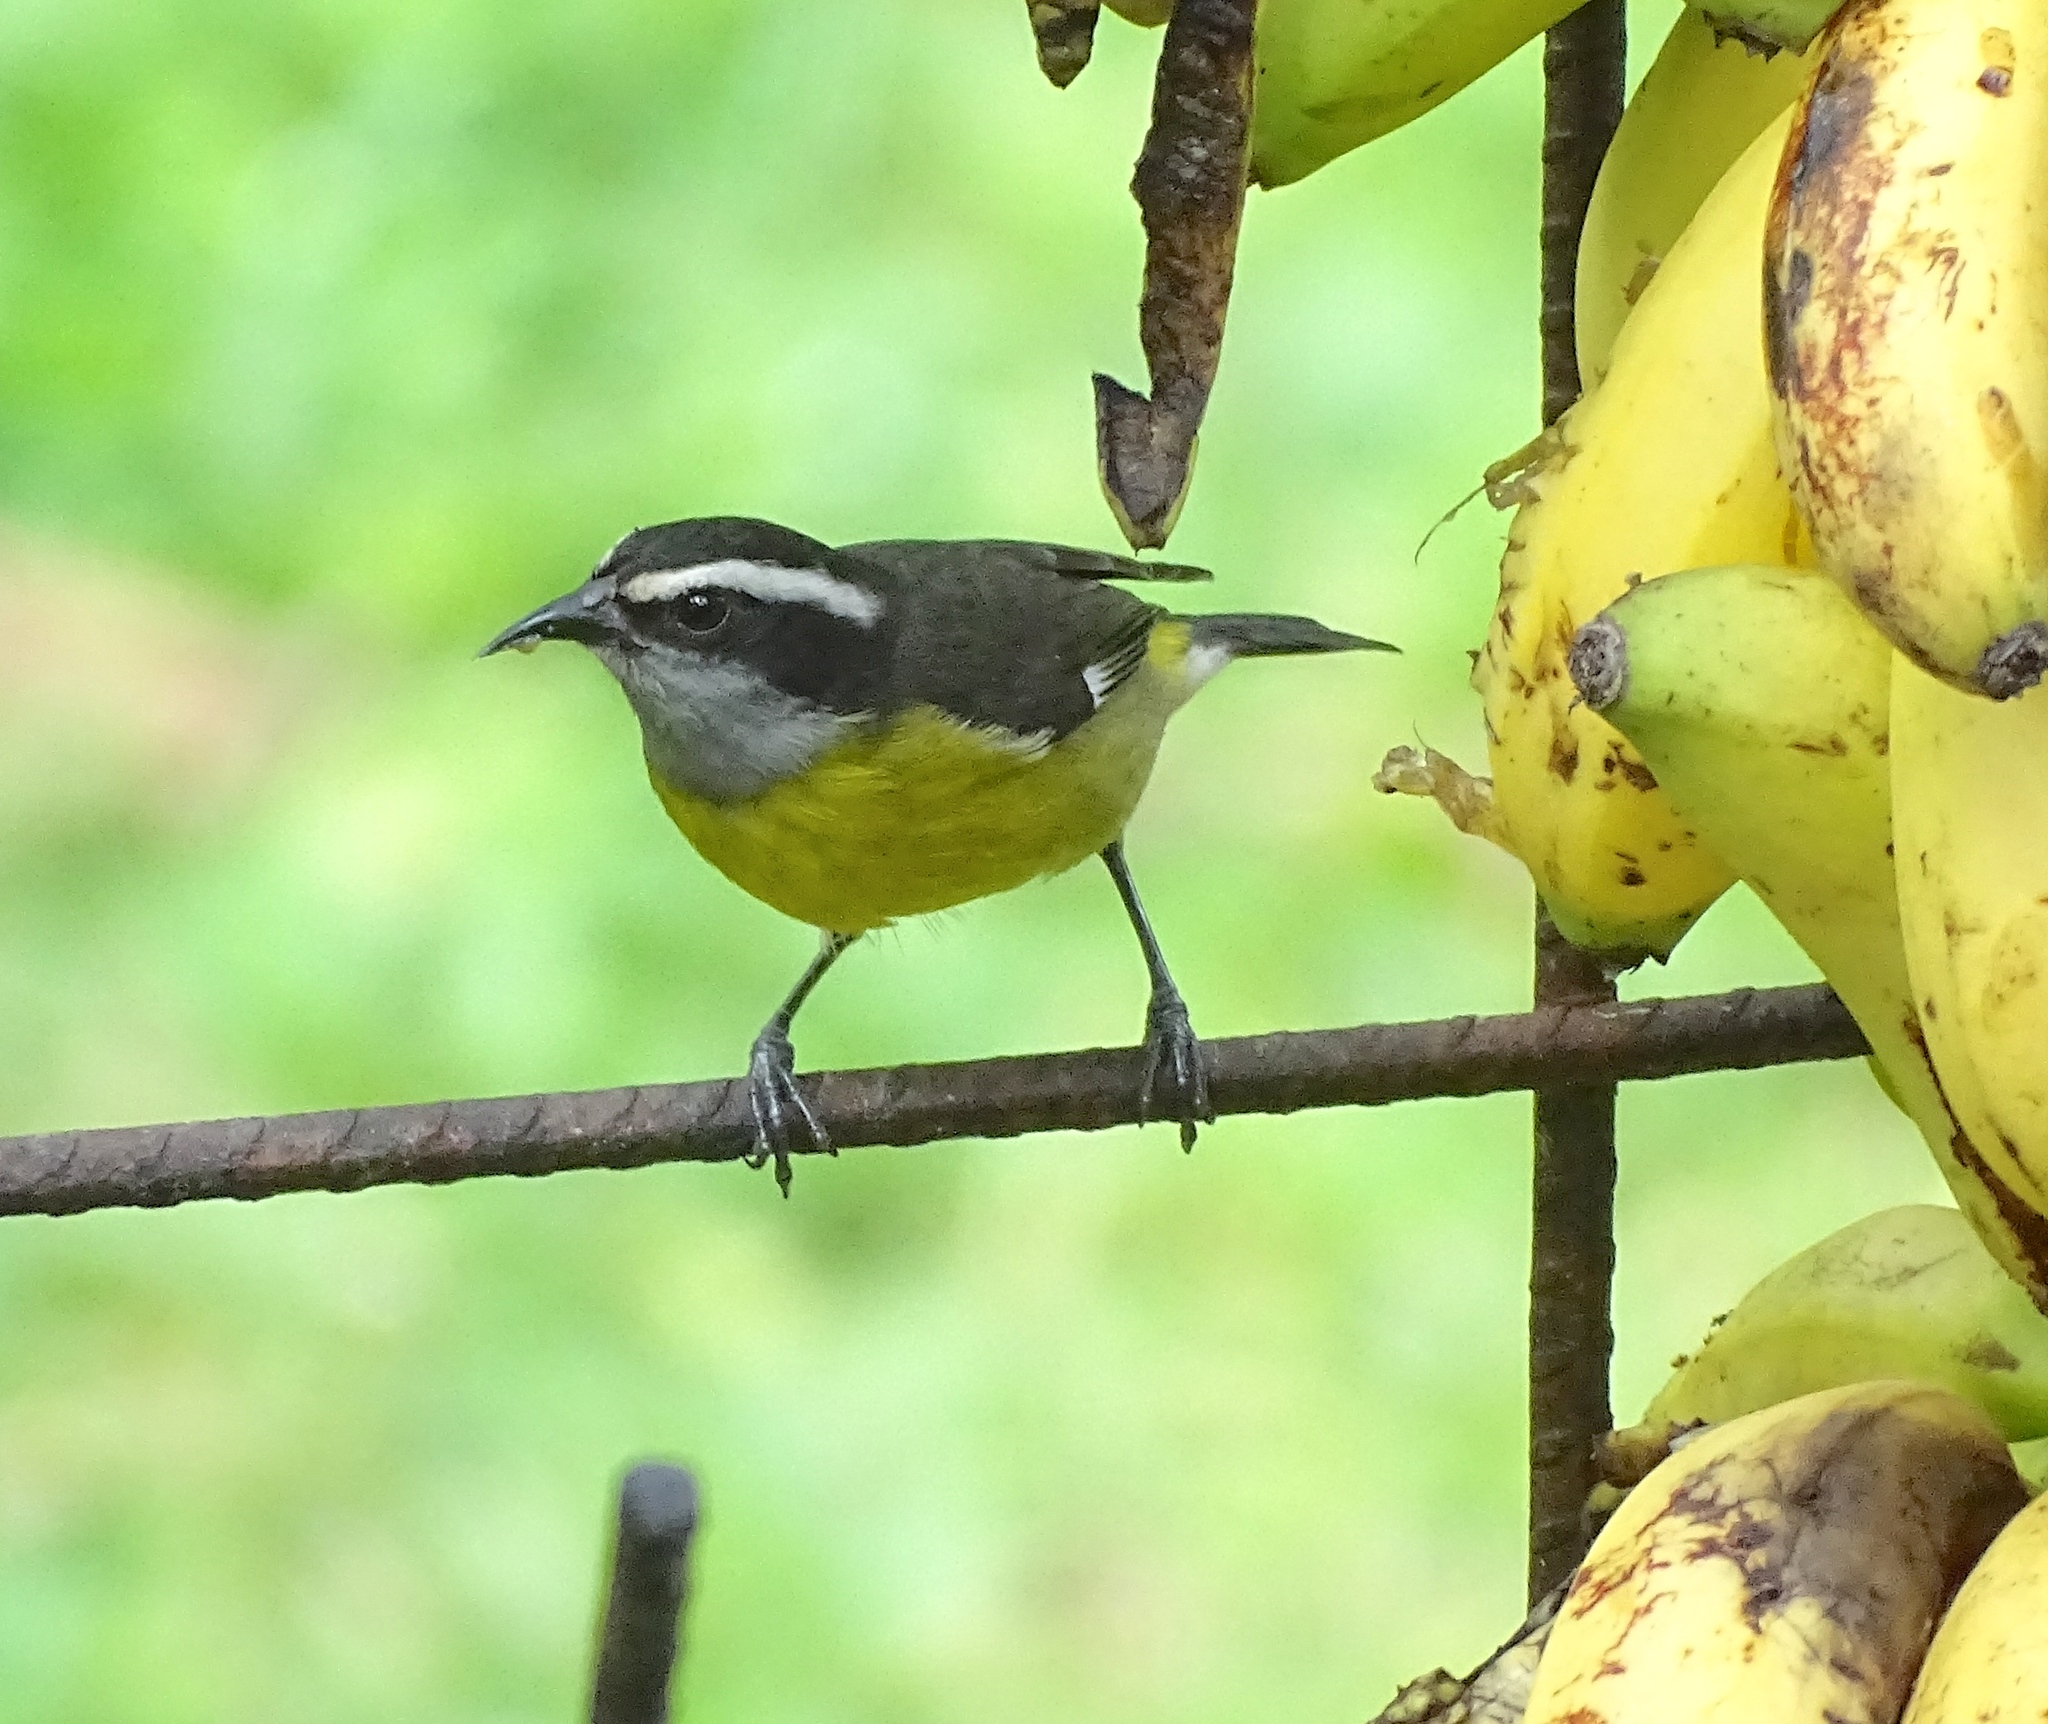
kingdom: Animalia
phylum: Chordata
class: Aves
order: Passeriformes
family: Thraupidae
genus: Coereba
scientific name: Coereba flaveola
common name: Bananaquit
